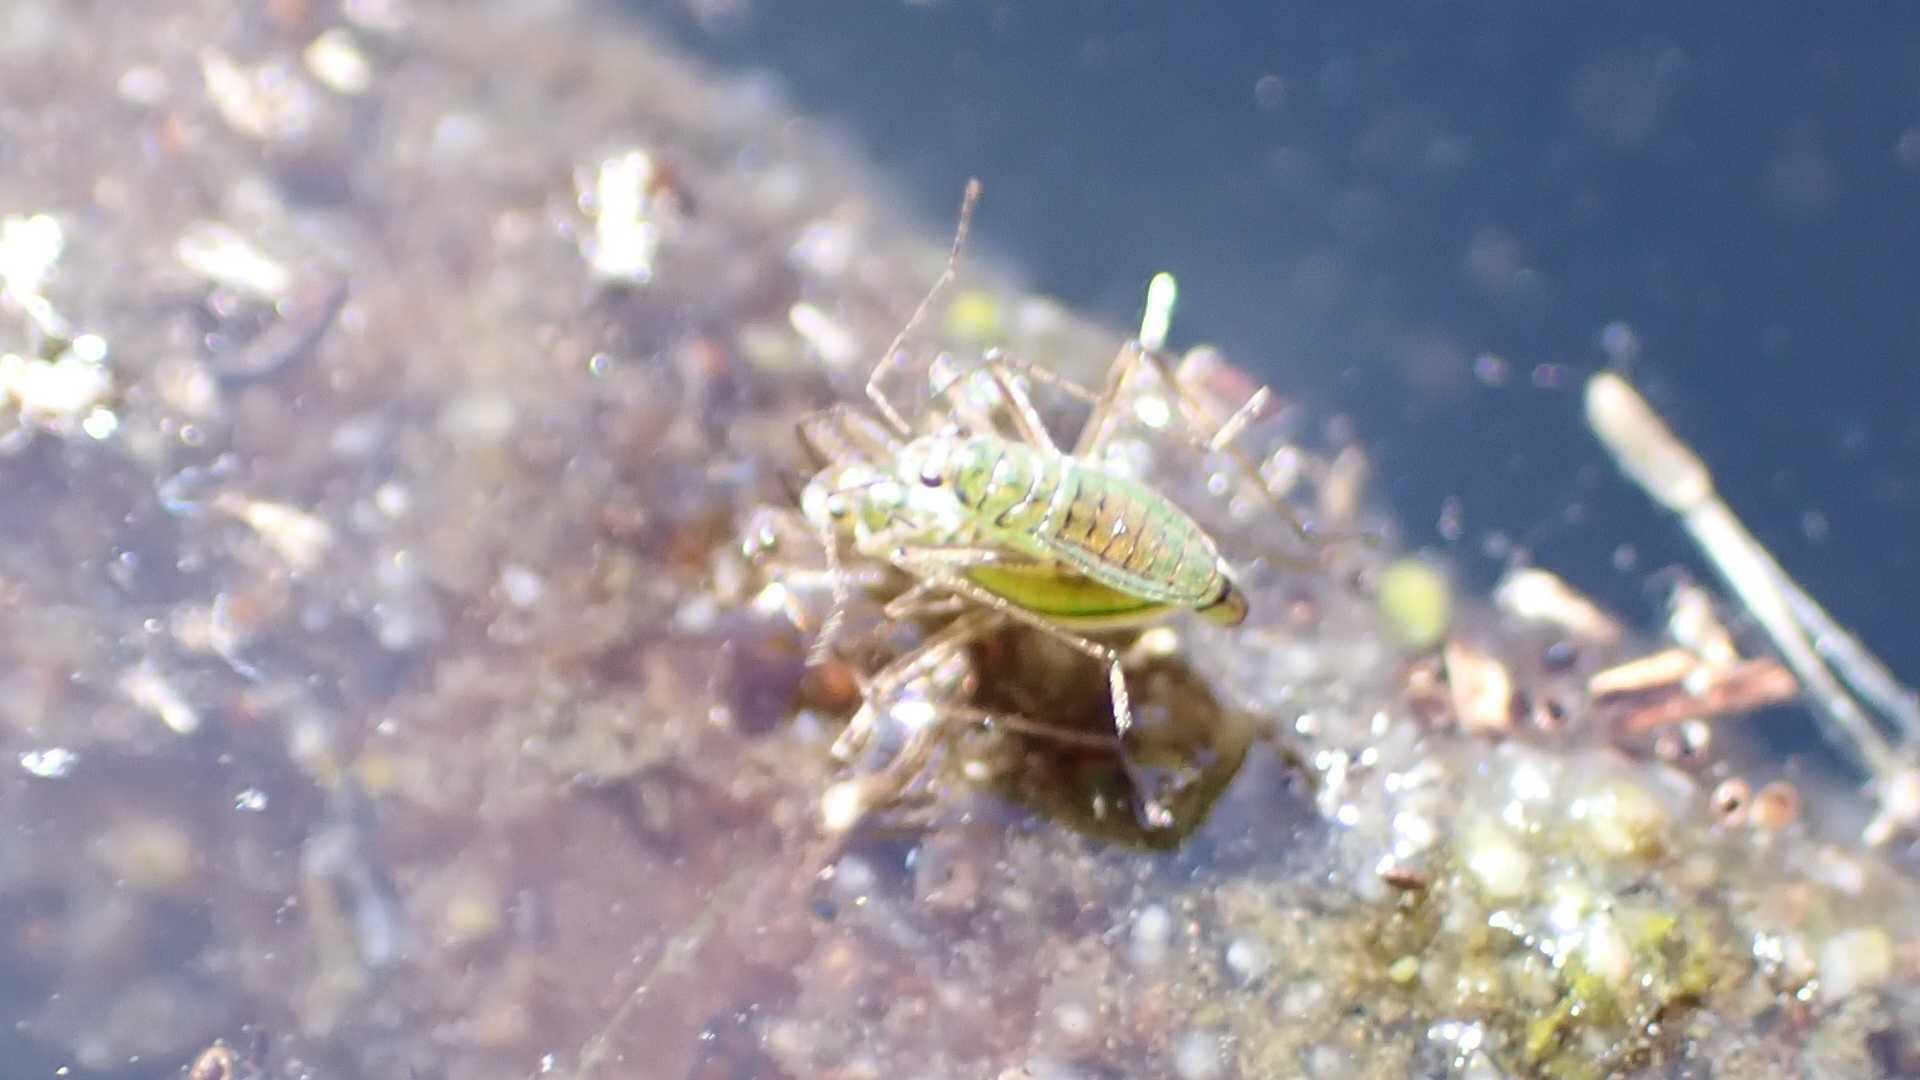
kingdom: Animalia
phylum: Arthropoda
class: Insecta
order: Hemiptera
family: Mesoveliidae
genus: Mesovelia
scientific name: Mesovelia furcata
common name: Pondweed bug
